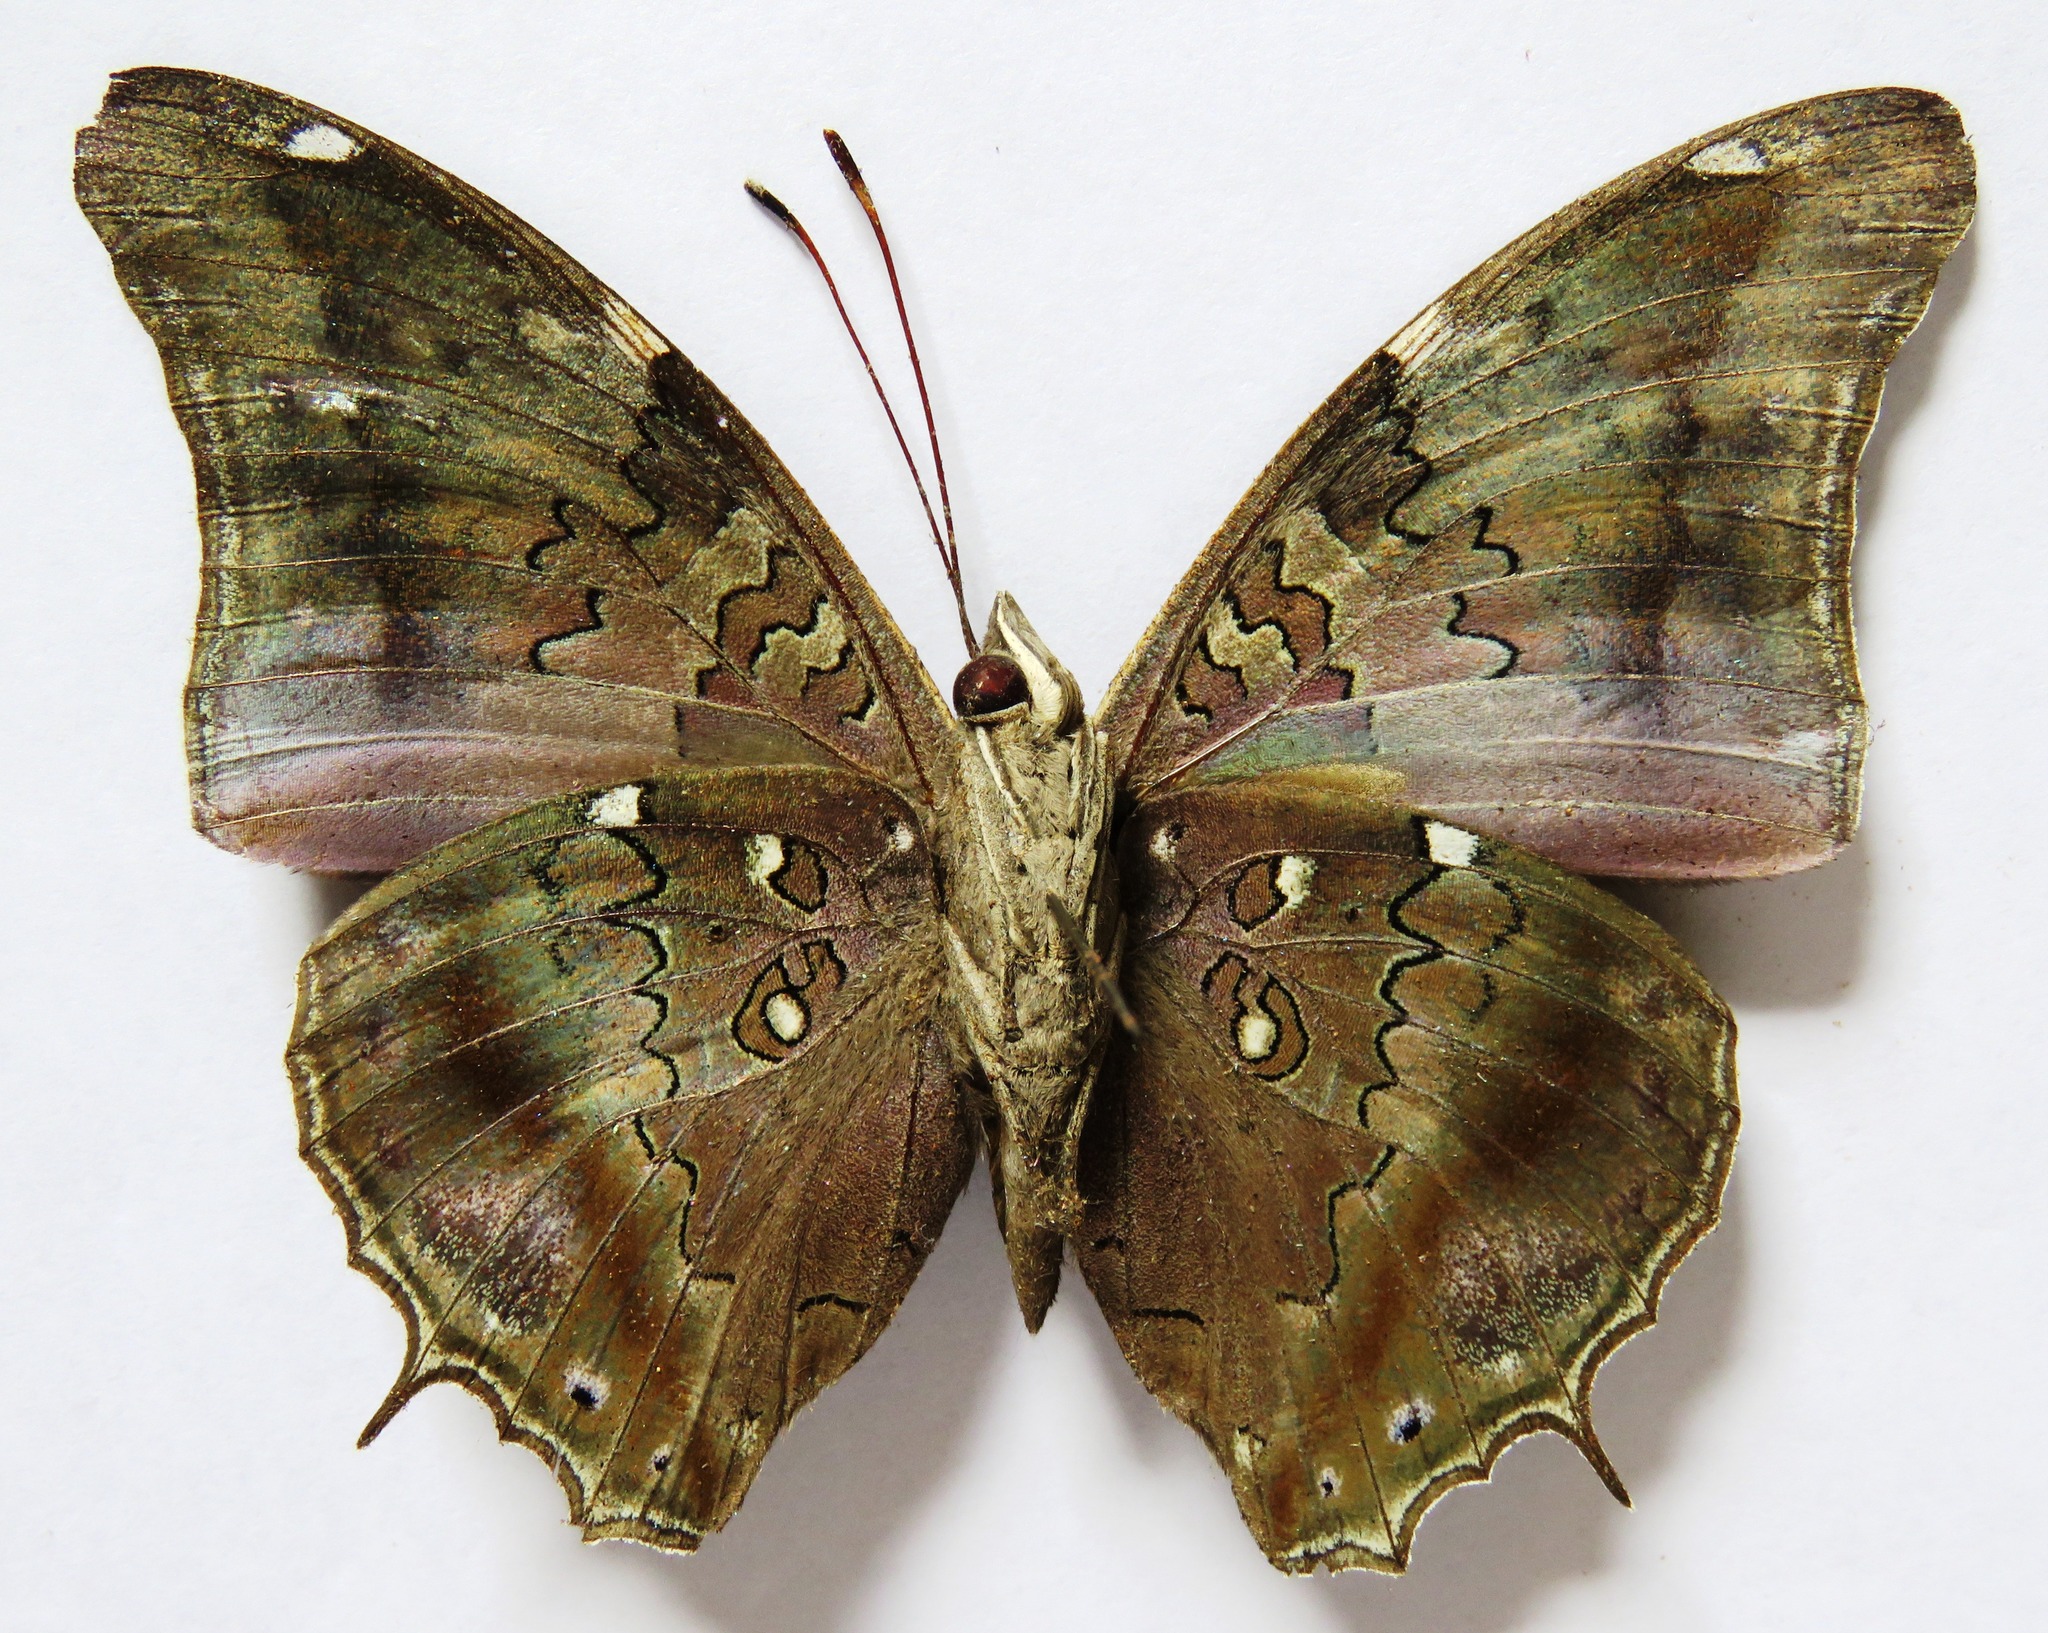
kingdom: Animalia
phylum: Arthropoda
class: Insecta
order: Lepidoptera
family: Nymphalidae
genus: Coea
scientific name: Coea acheronta
